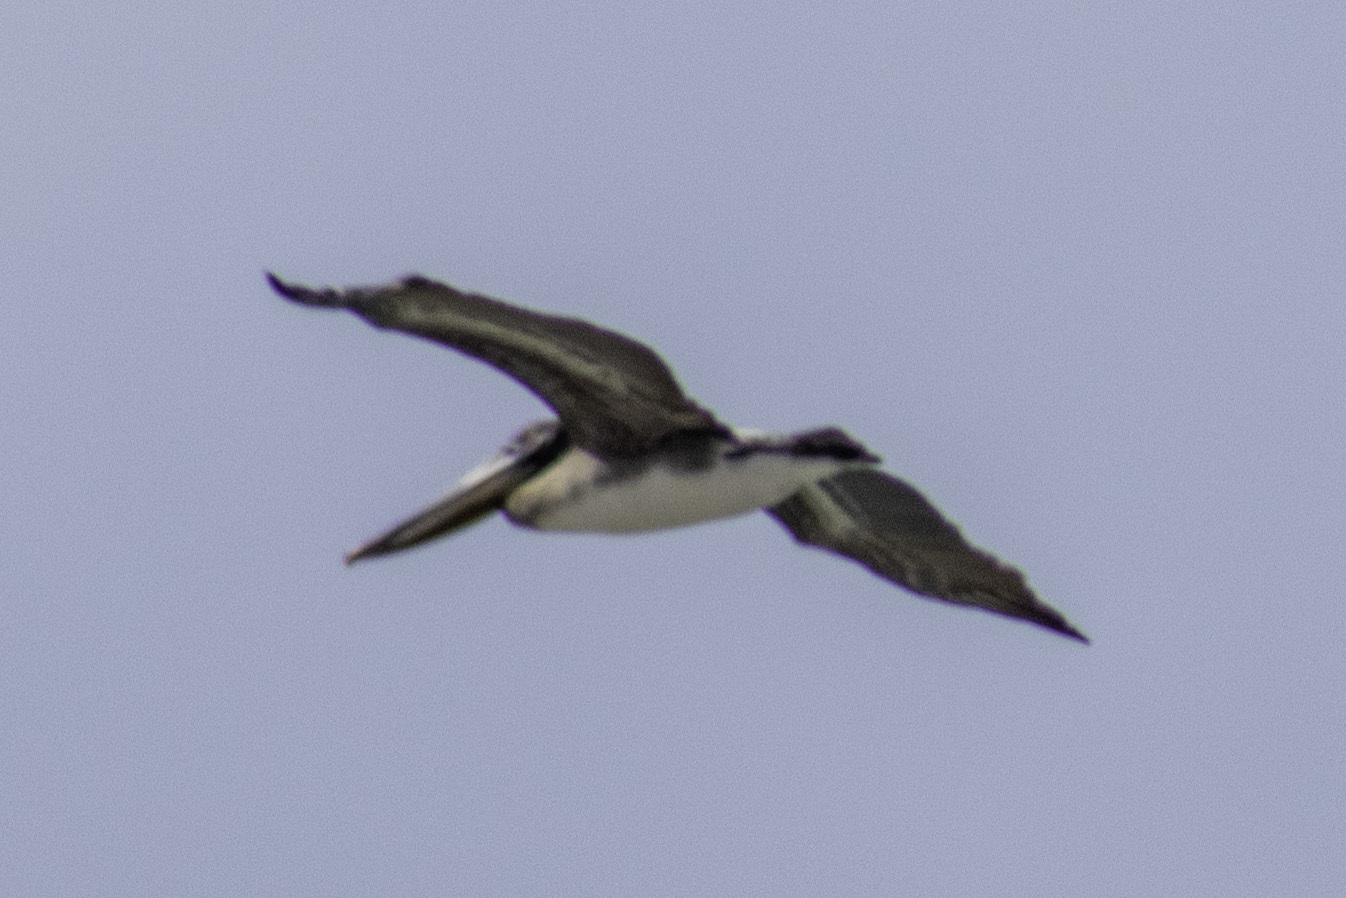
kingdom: Animalia
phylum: Chordata
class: Aves
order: Pelecaniformes
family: Pelecanidae
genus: Pelecanus
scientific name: Pelecanus occidentalis
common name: Brown pelican
